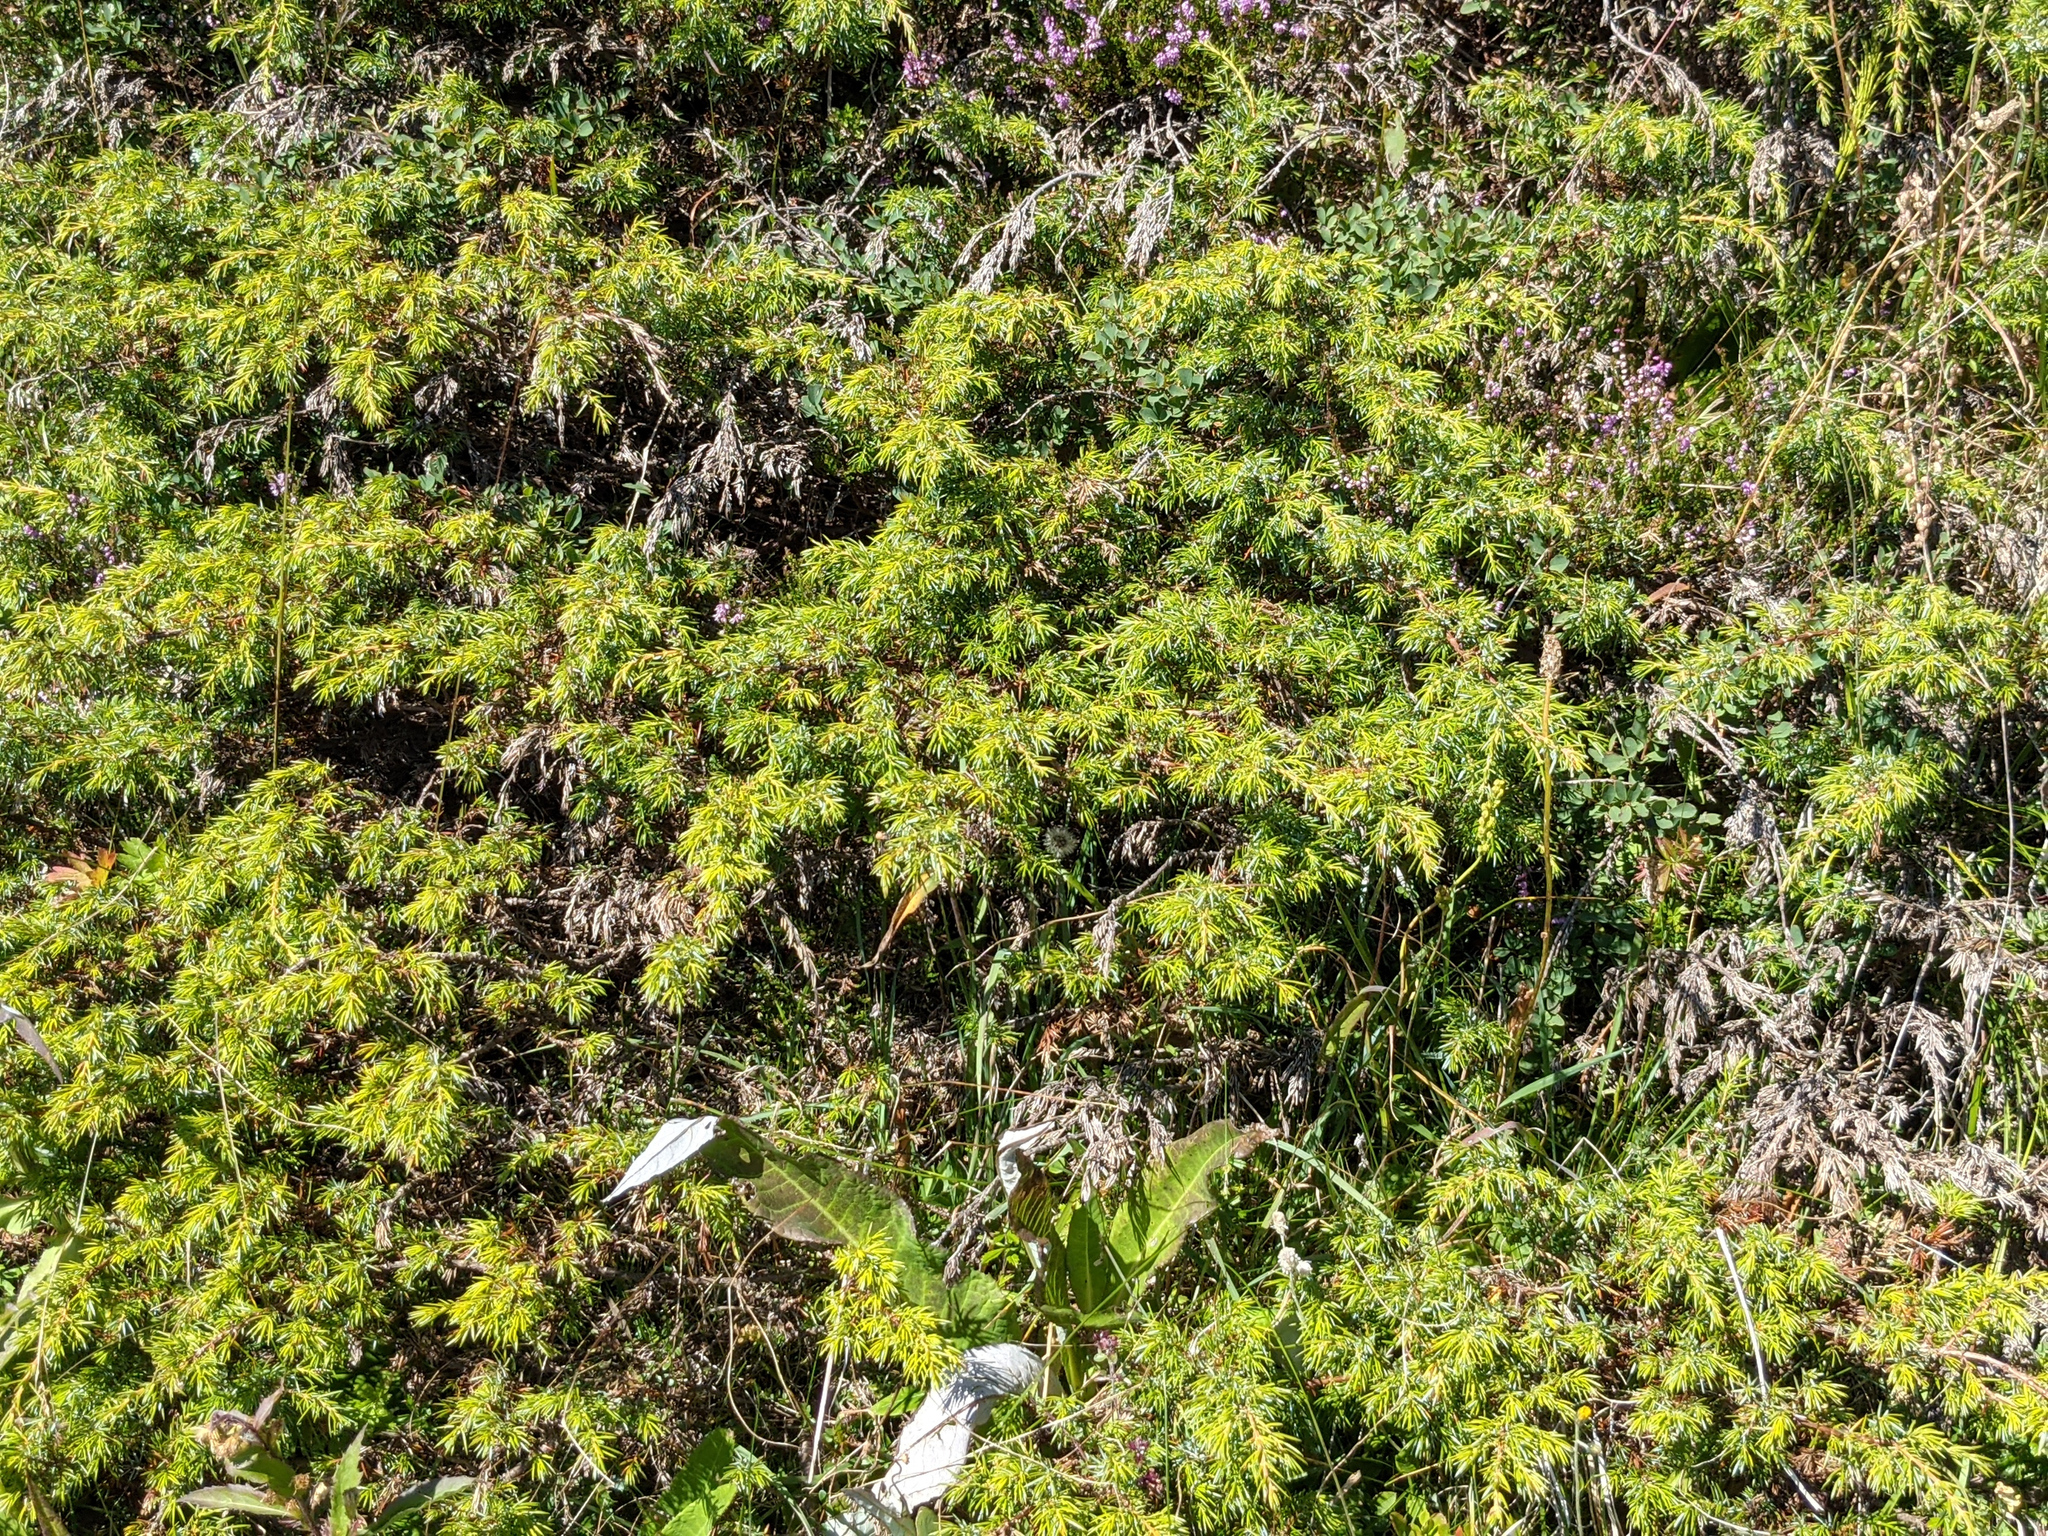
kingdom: Plantae
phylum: Tracheophyta
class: Pinopsida
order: Pinales
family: Cupressaceae
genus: Juniperus
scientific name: Juniperus communis
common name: Common juniper
